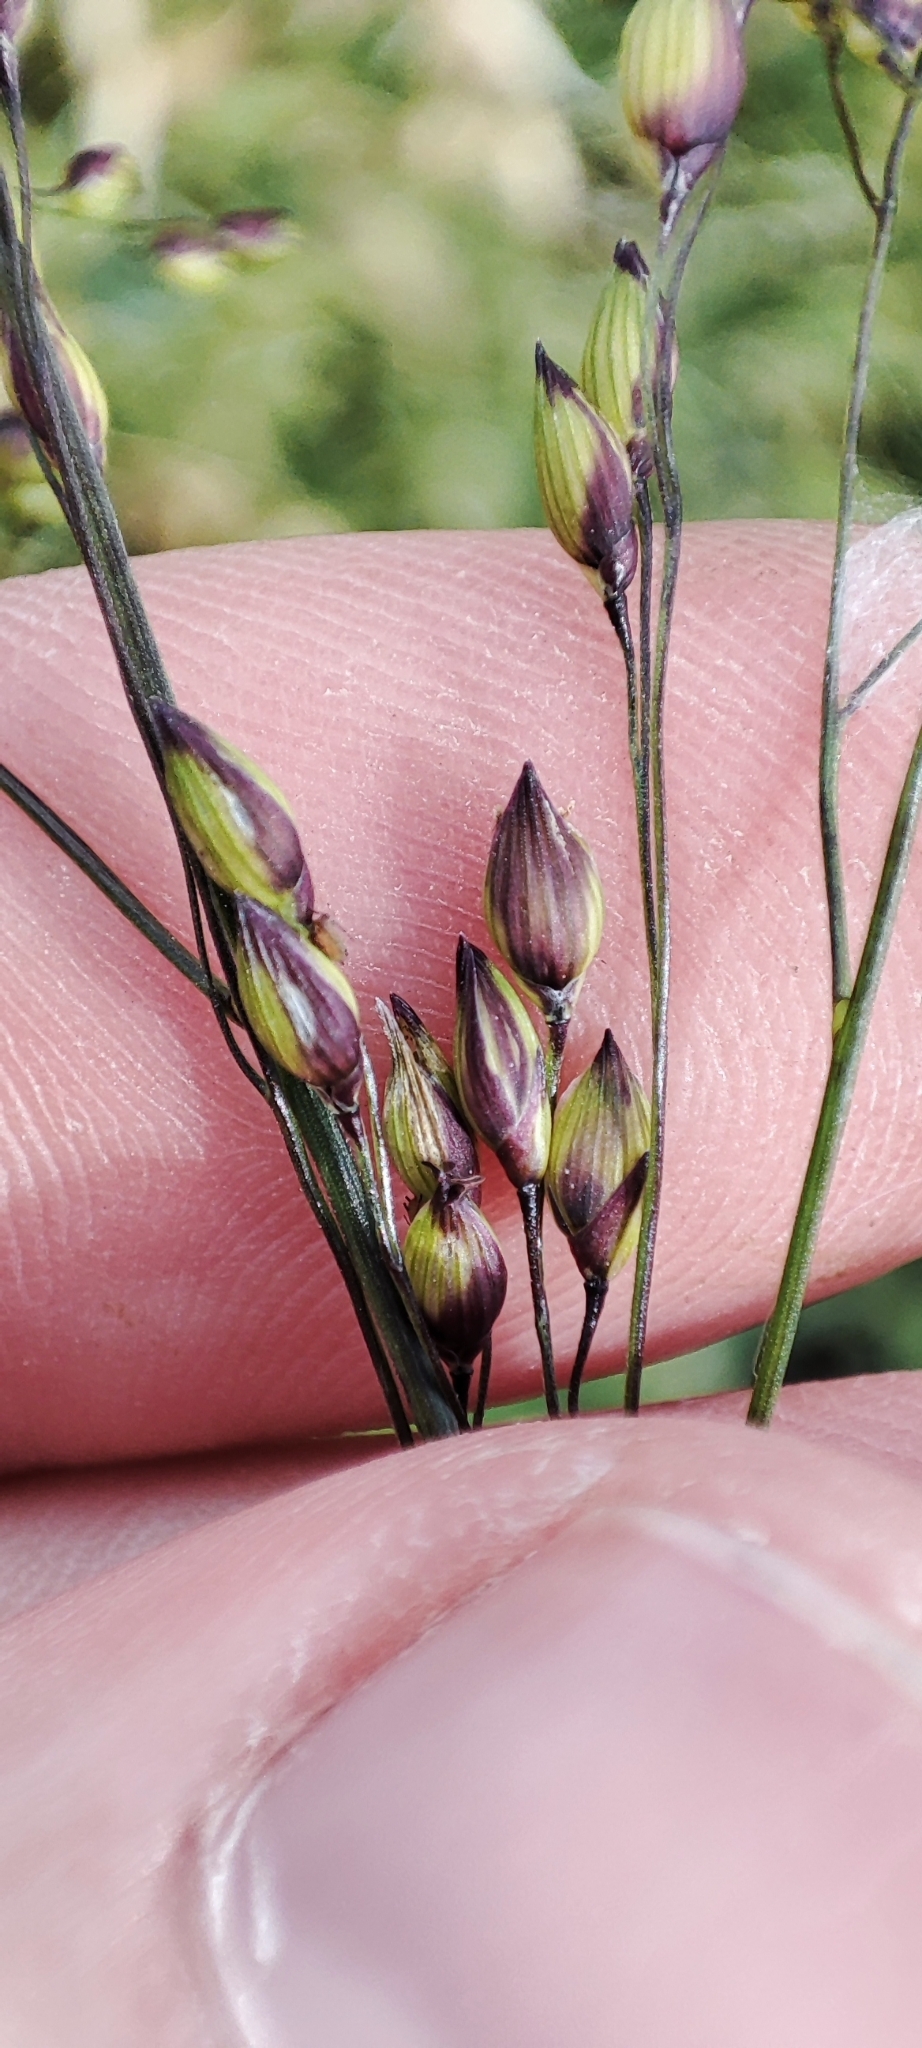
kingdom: Plantae
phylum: Tracheophyta
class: Liliopsida
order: Poales
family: Poaceae
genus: Panicum
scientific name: Panicum miliaceum
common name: Common millet
